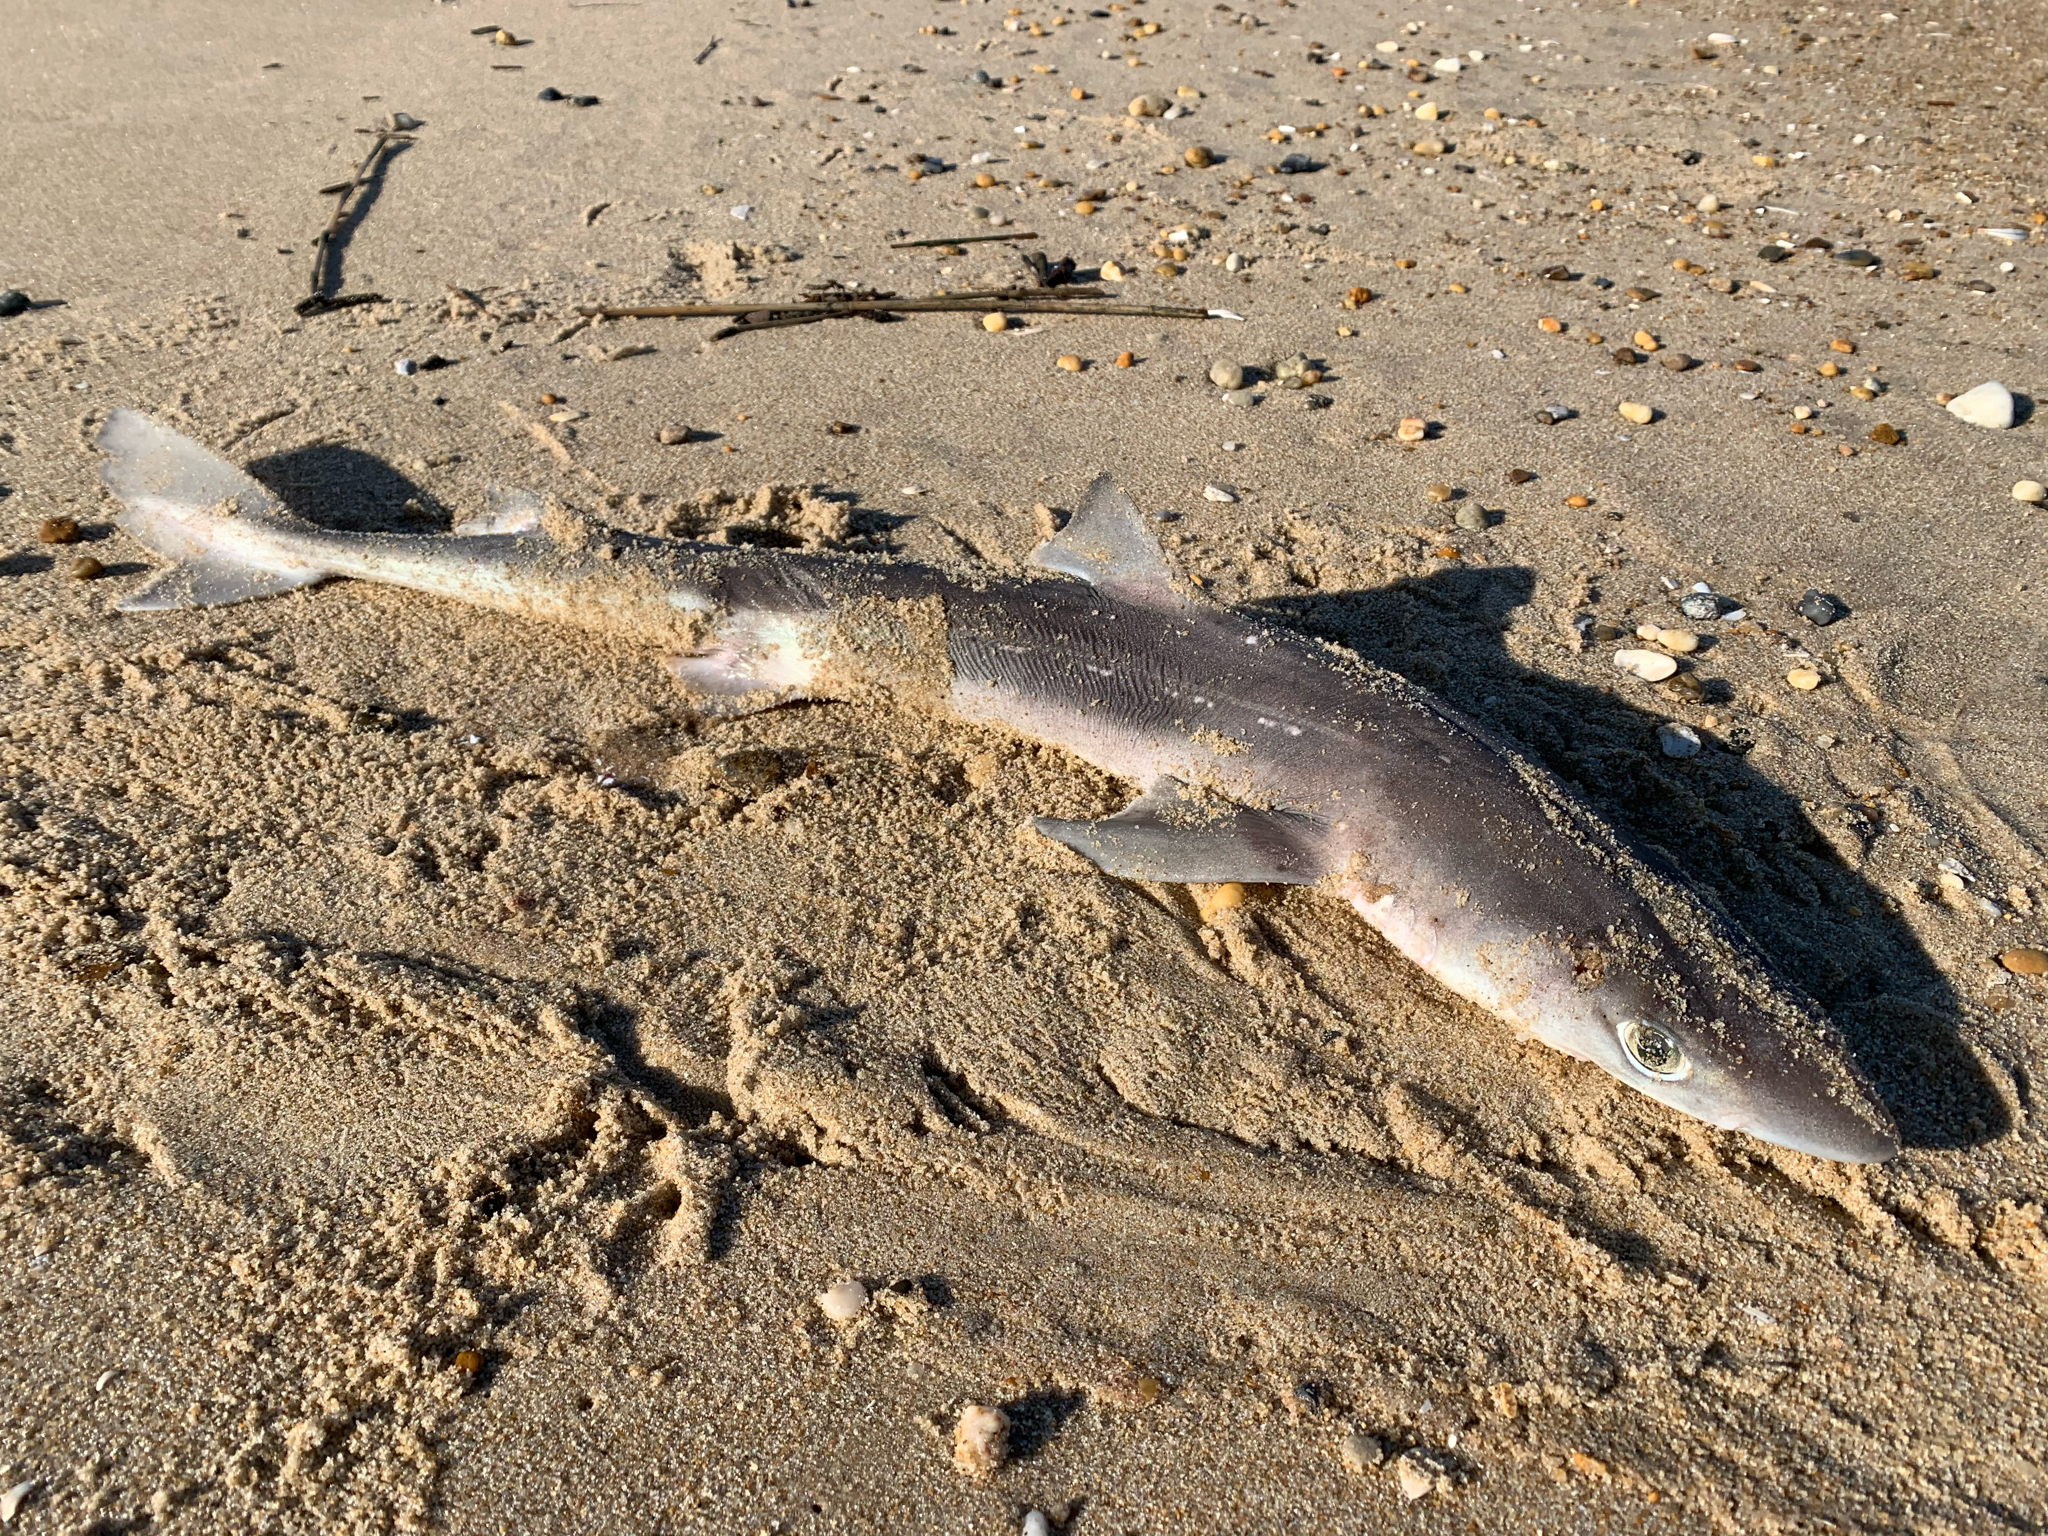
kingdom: Animalia
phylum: Chordata
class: Elasmobranchii
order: Squaliformes
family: Squalidae
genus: Squalus
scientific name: Squalus acanthias
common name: Spurdog
